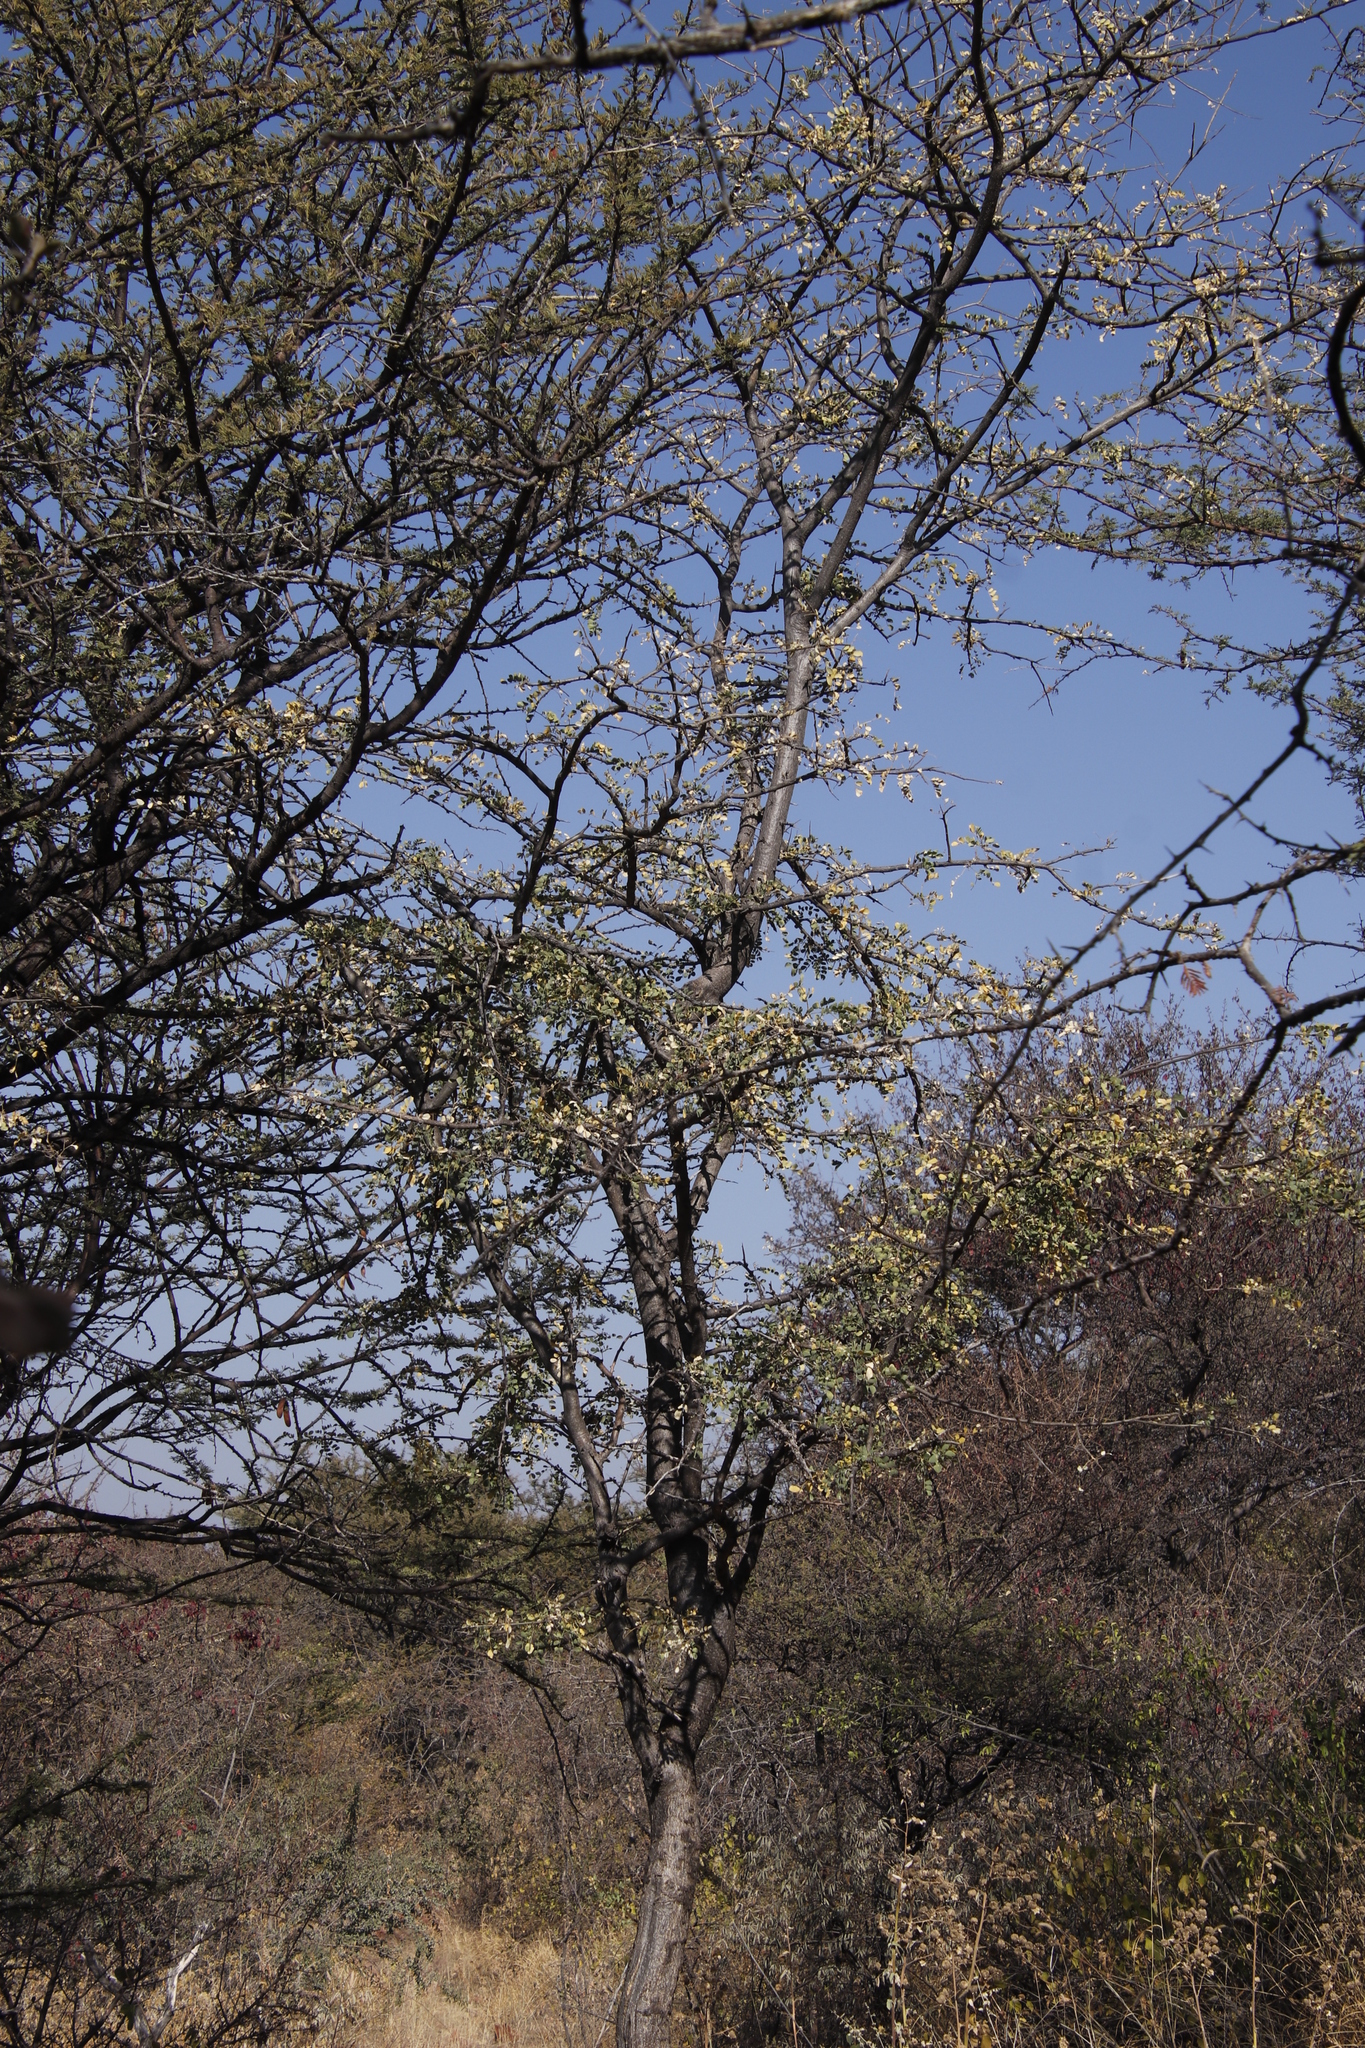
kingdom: Plantae
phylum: Tracheophyta
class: Magnoliopsida
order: Fabales
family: Fabaceae
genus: Albizia
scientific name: Albizia anthelmintica
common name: Worm-bark false-thorn
